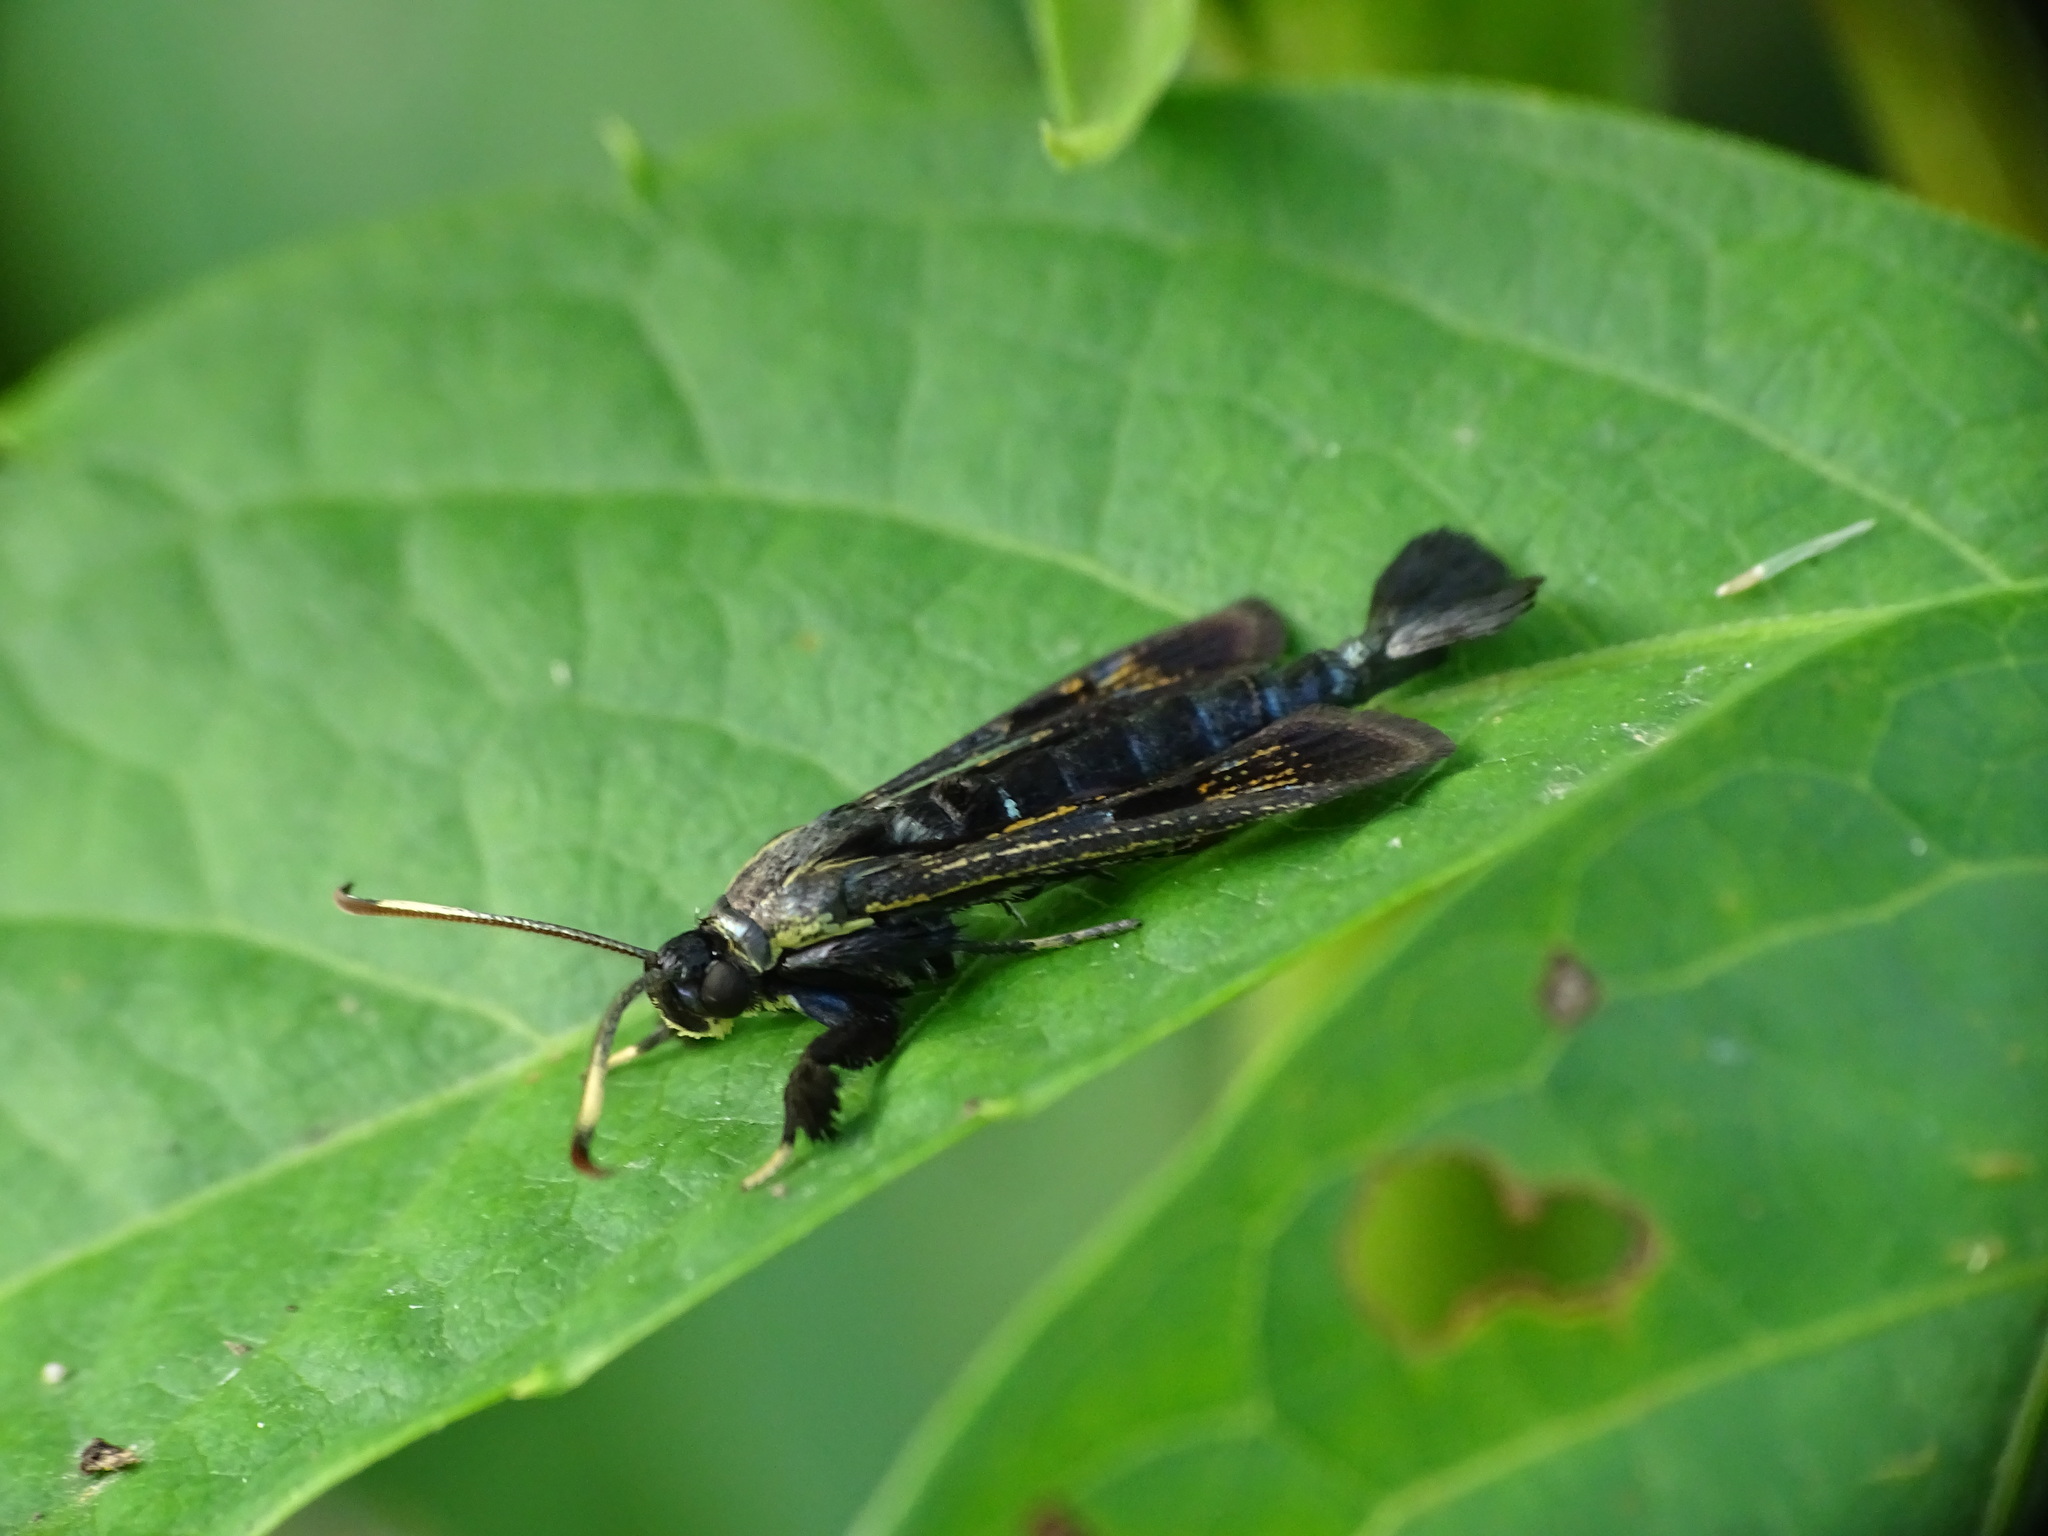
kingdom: Animalia
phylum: Arthropoda
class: Insecta
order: Lepidoptera
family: Sesiidae
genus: Albuna
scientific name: Albuna fraxini
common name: Virginia creeper clearwing
